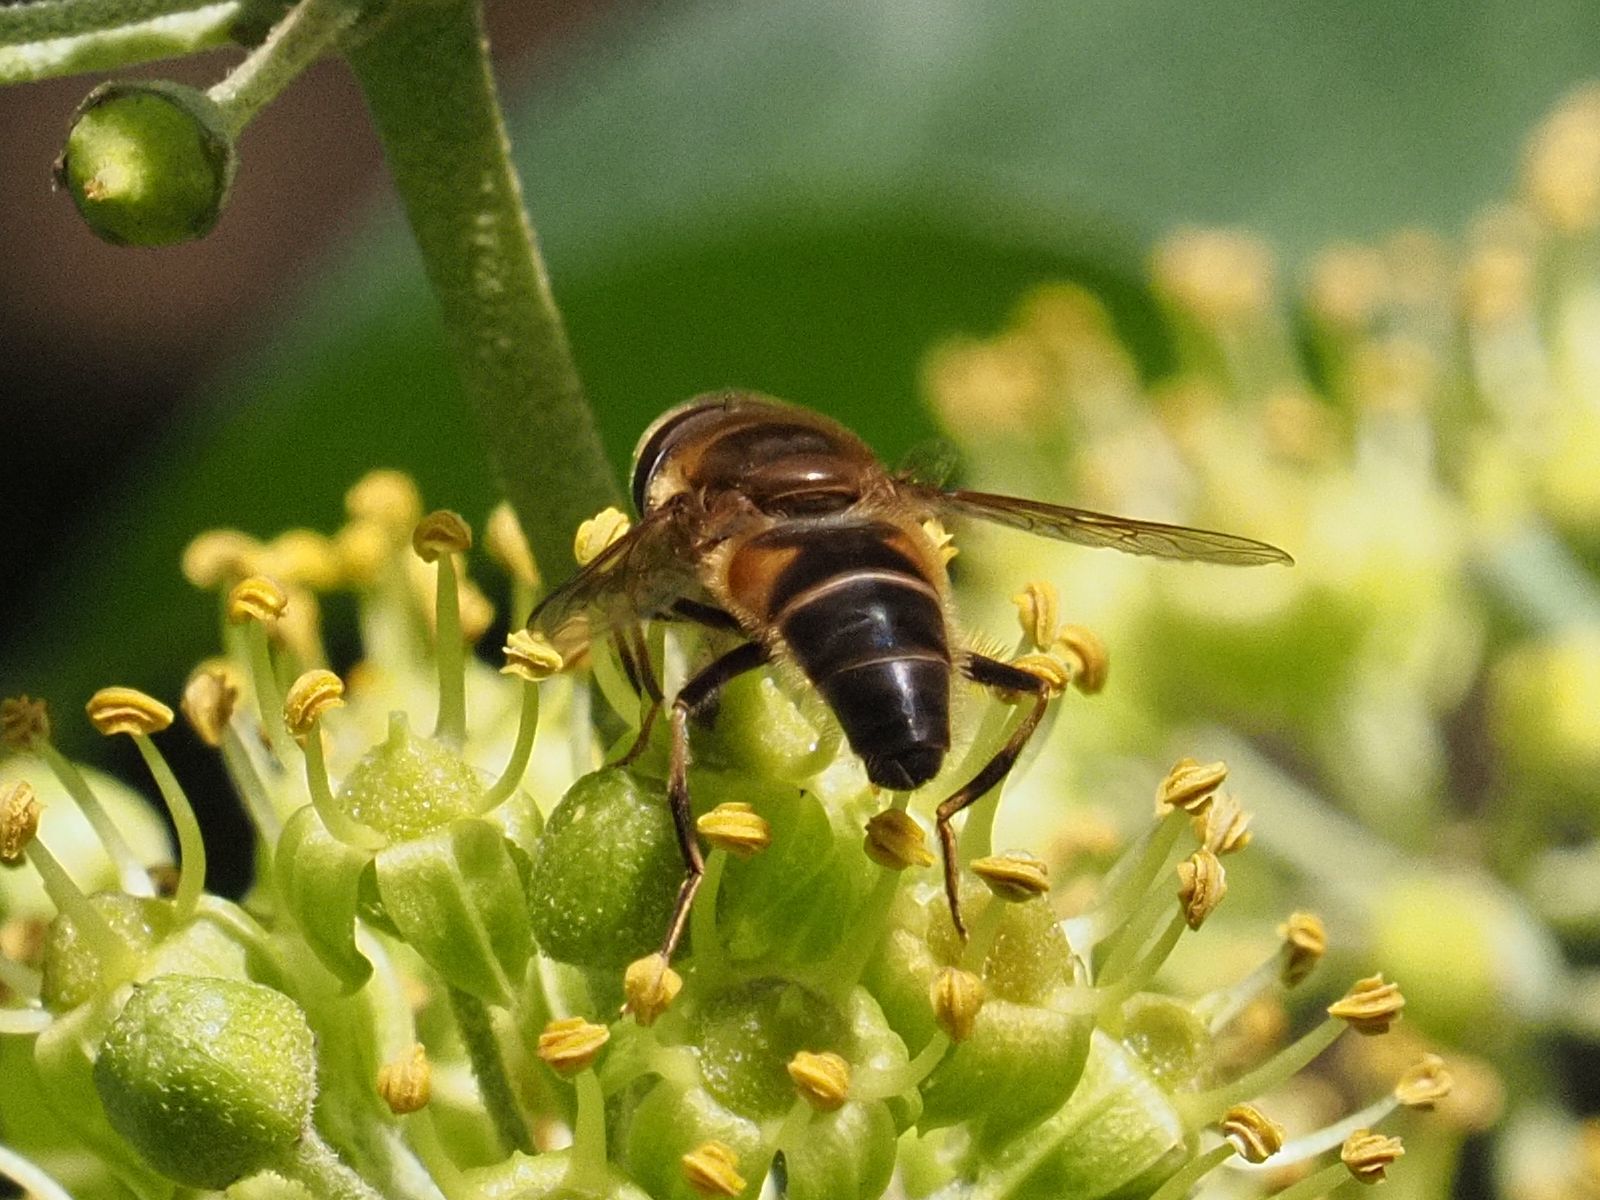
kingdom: Animalia
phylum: Arthropoda
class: Insecta
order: Diptera
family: Syrphidae
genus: Eristalis
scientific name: Eristalis pertinax
